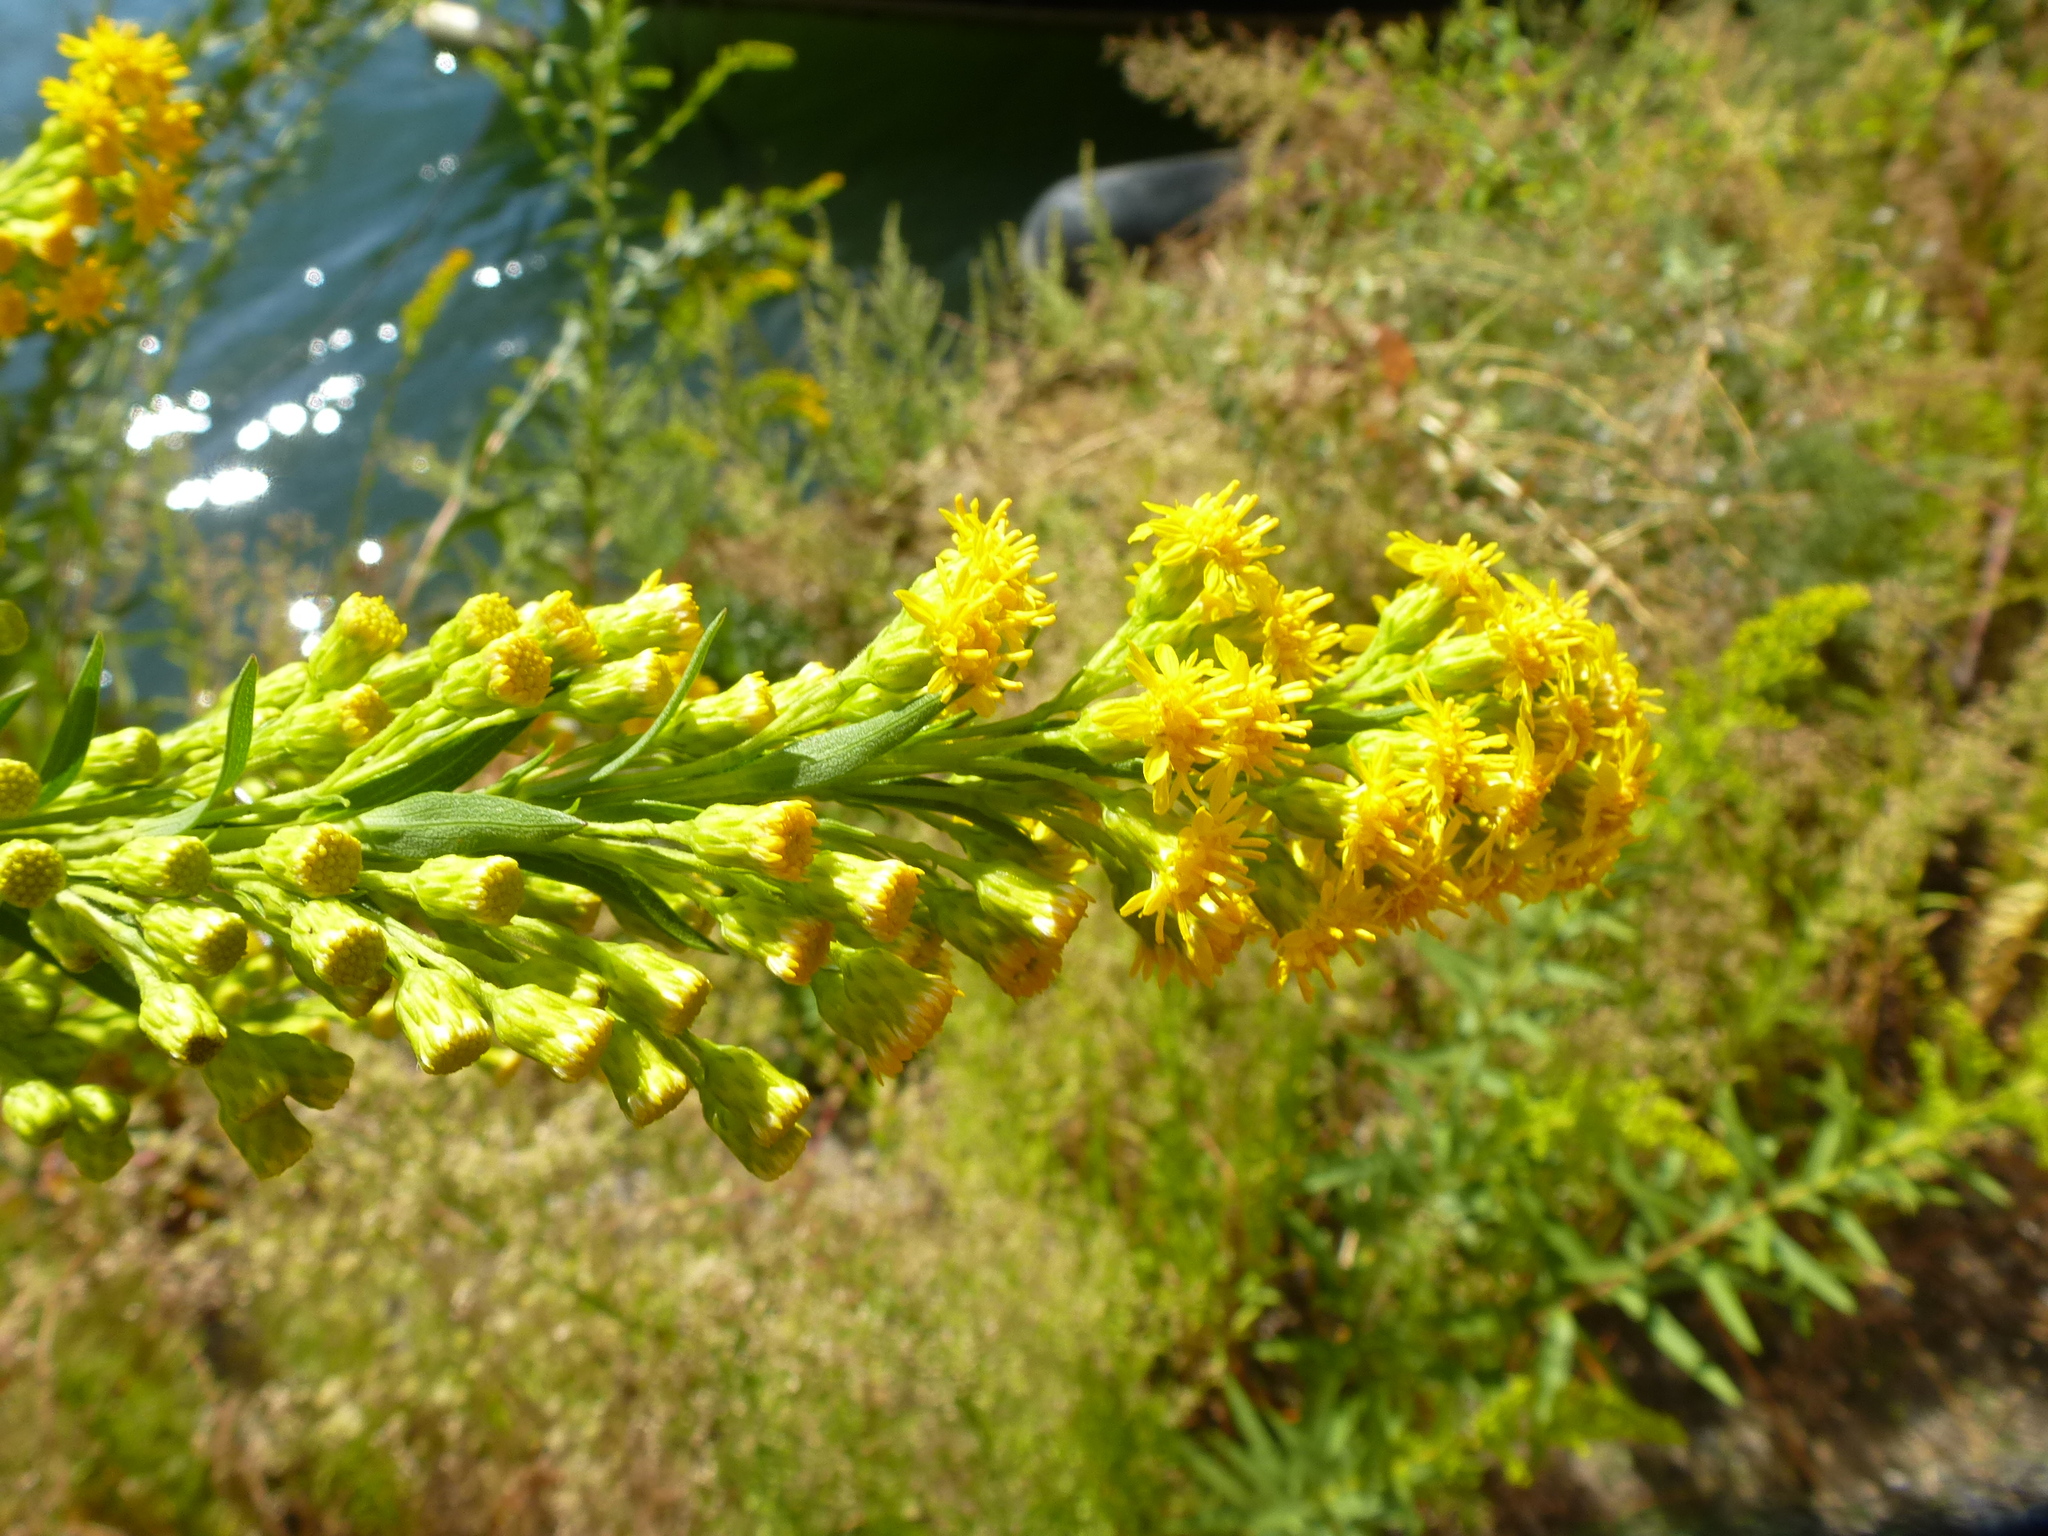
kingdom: Plantae
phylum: Tracheophyta
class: Magnoliopsida
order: Asterales
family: Asteraceae
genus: Solidago
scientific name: Solidago sempervirens
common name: Salt-marsh goldenrod
